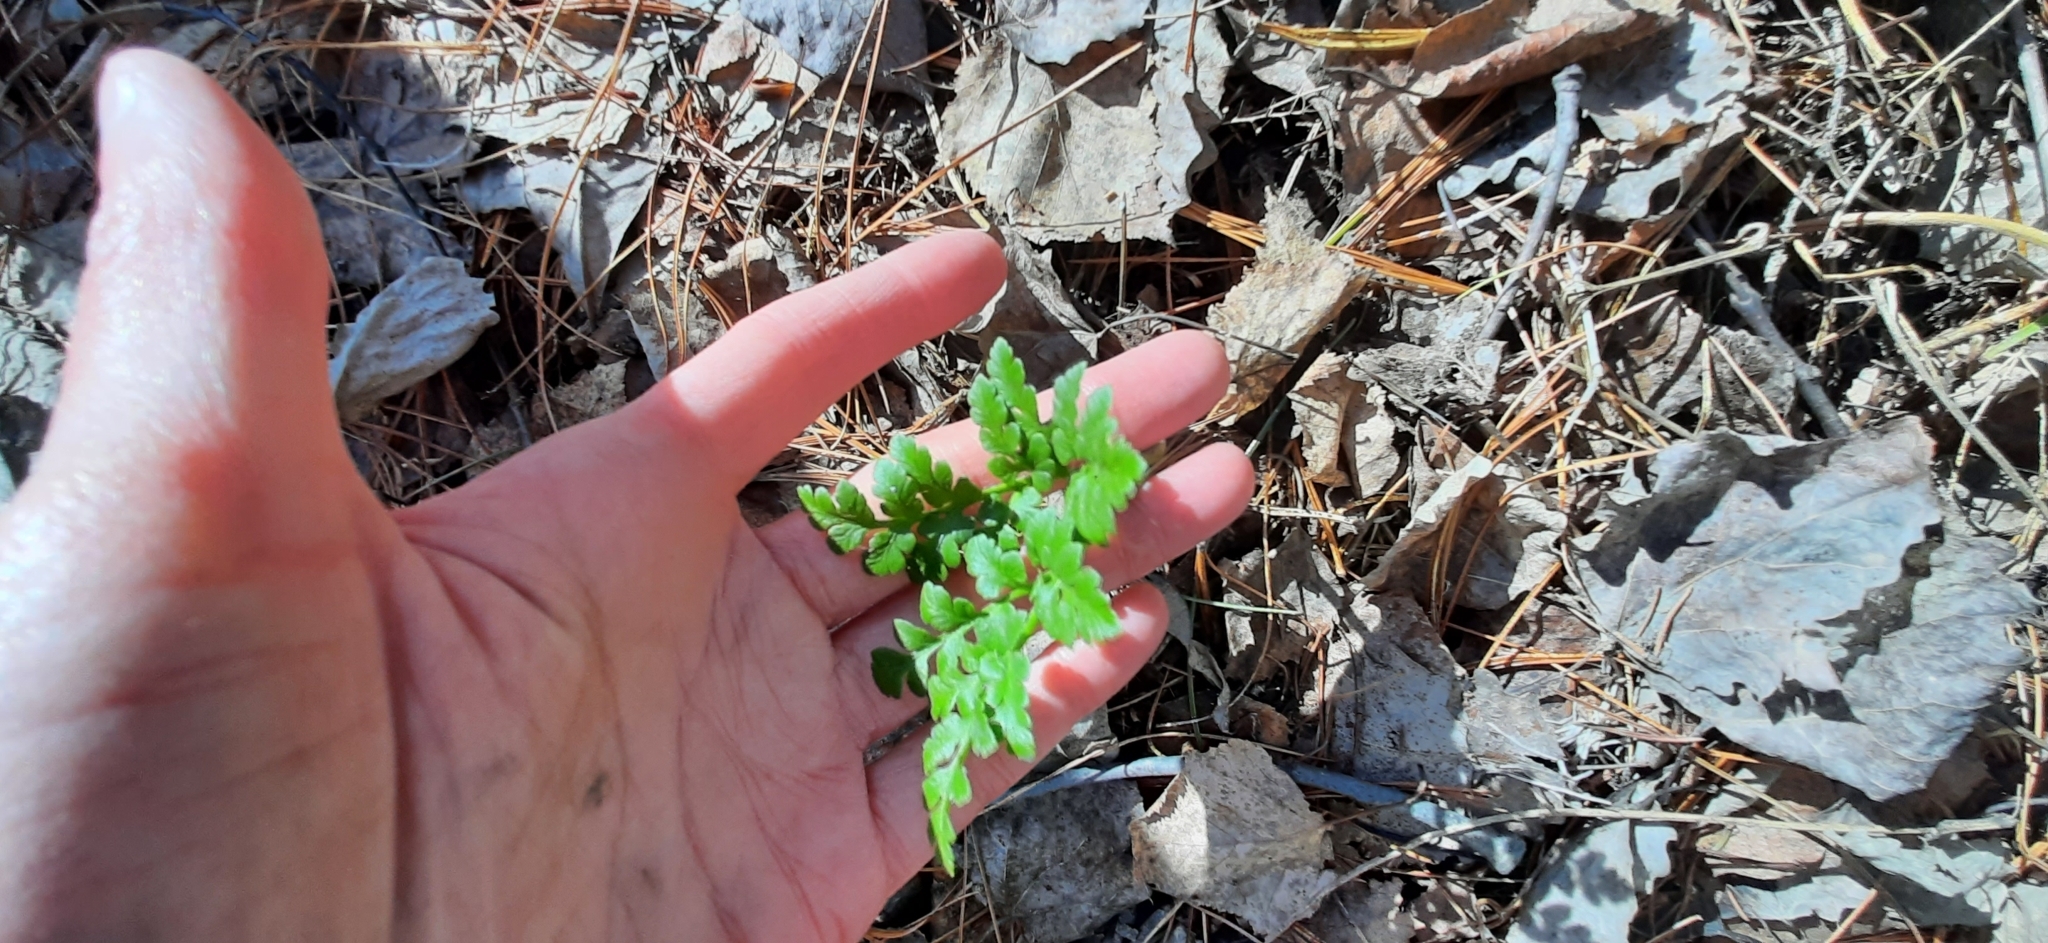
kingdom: Plantae
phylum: Tracheophyta
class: Polypodiopsida
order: Ophioglossales
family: Ophioglossaceae
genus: Sceptridium
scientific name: Sceptridium multifidum
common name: Leathery grape fern
